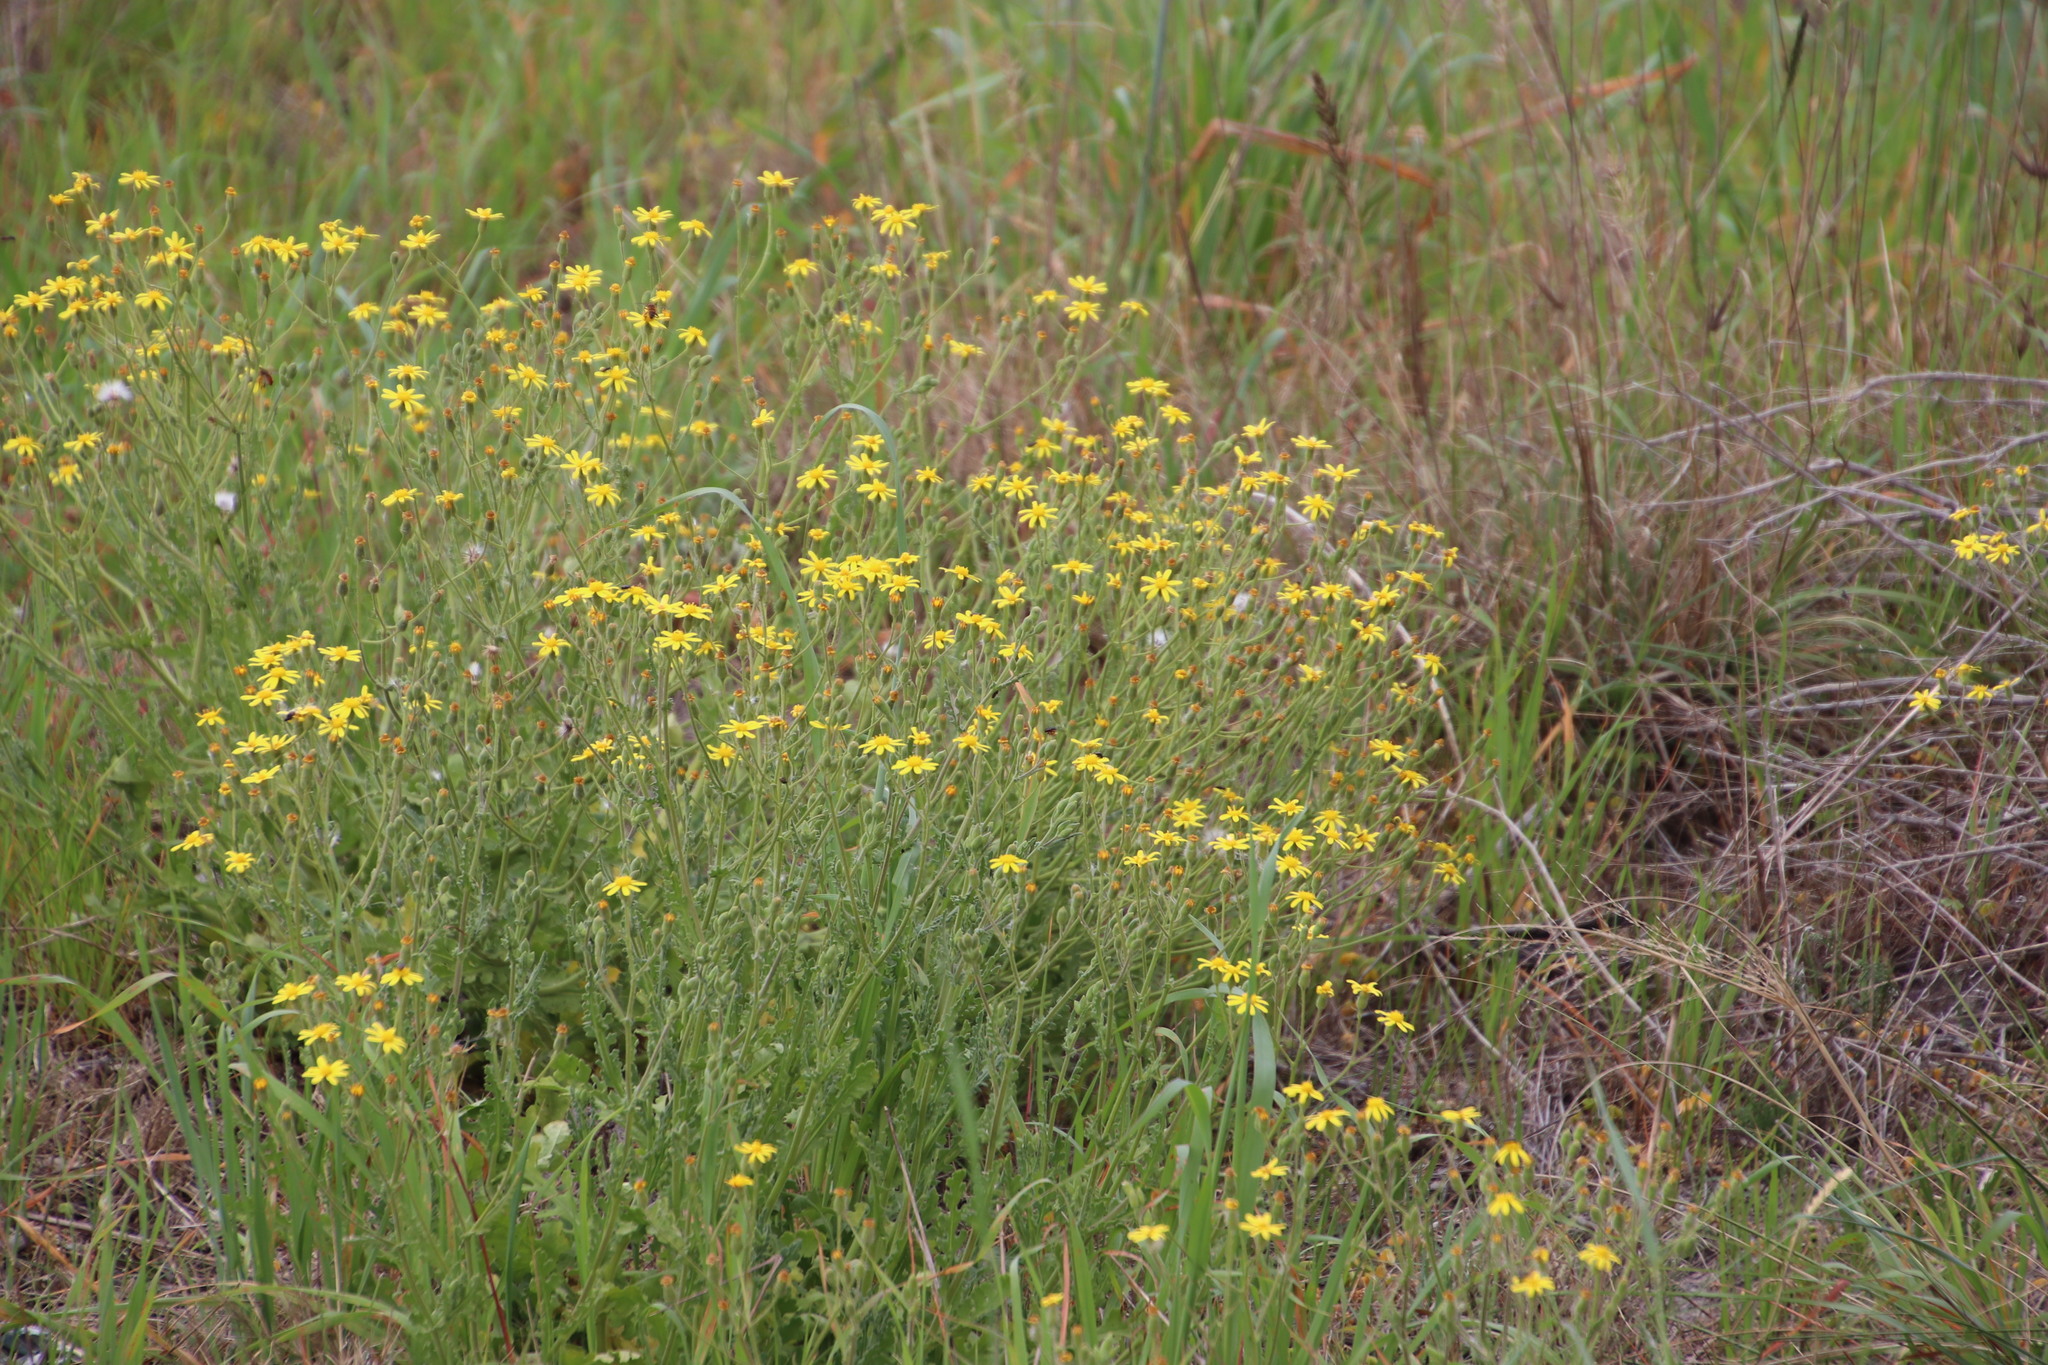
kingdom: Plantae
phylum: Tracheophyta
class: Magnoliopsida
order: Asterales
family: Asteraceae
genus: Senecio
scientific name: Senecio hastatus
